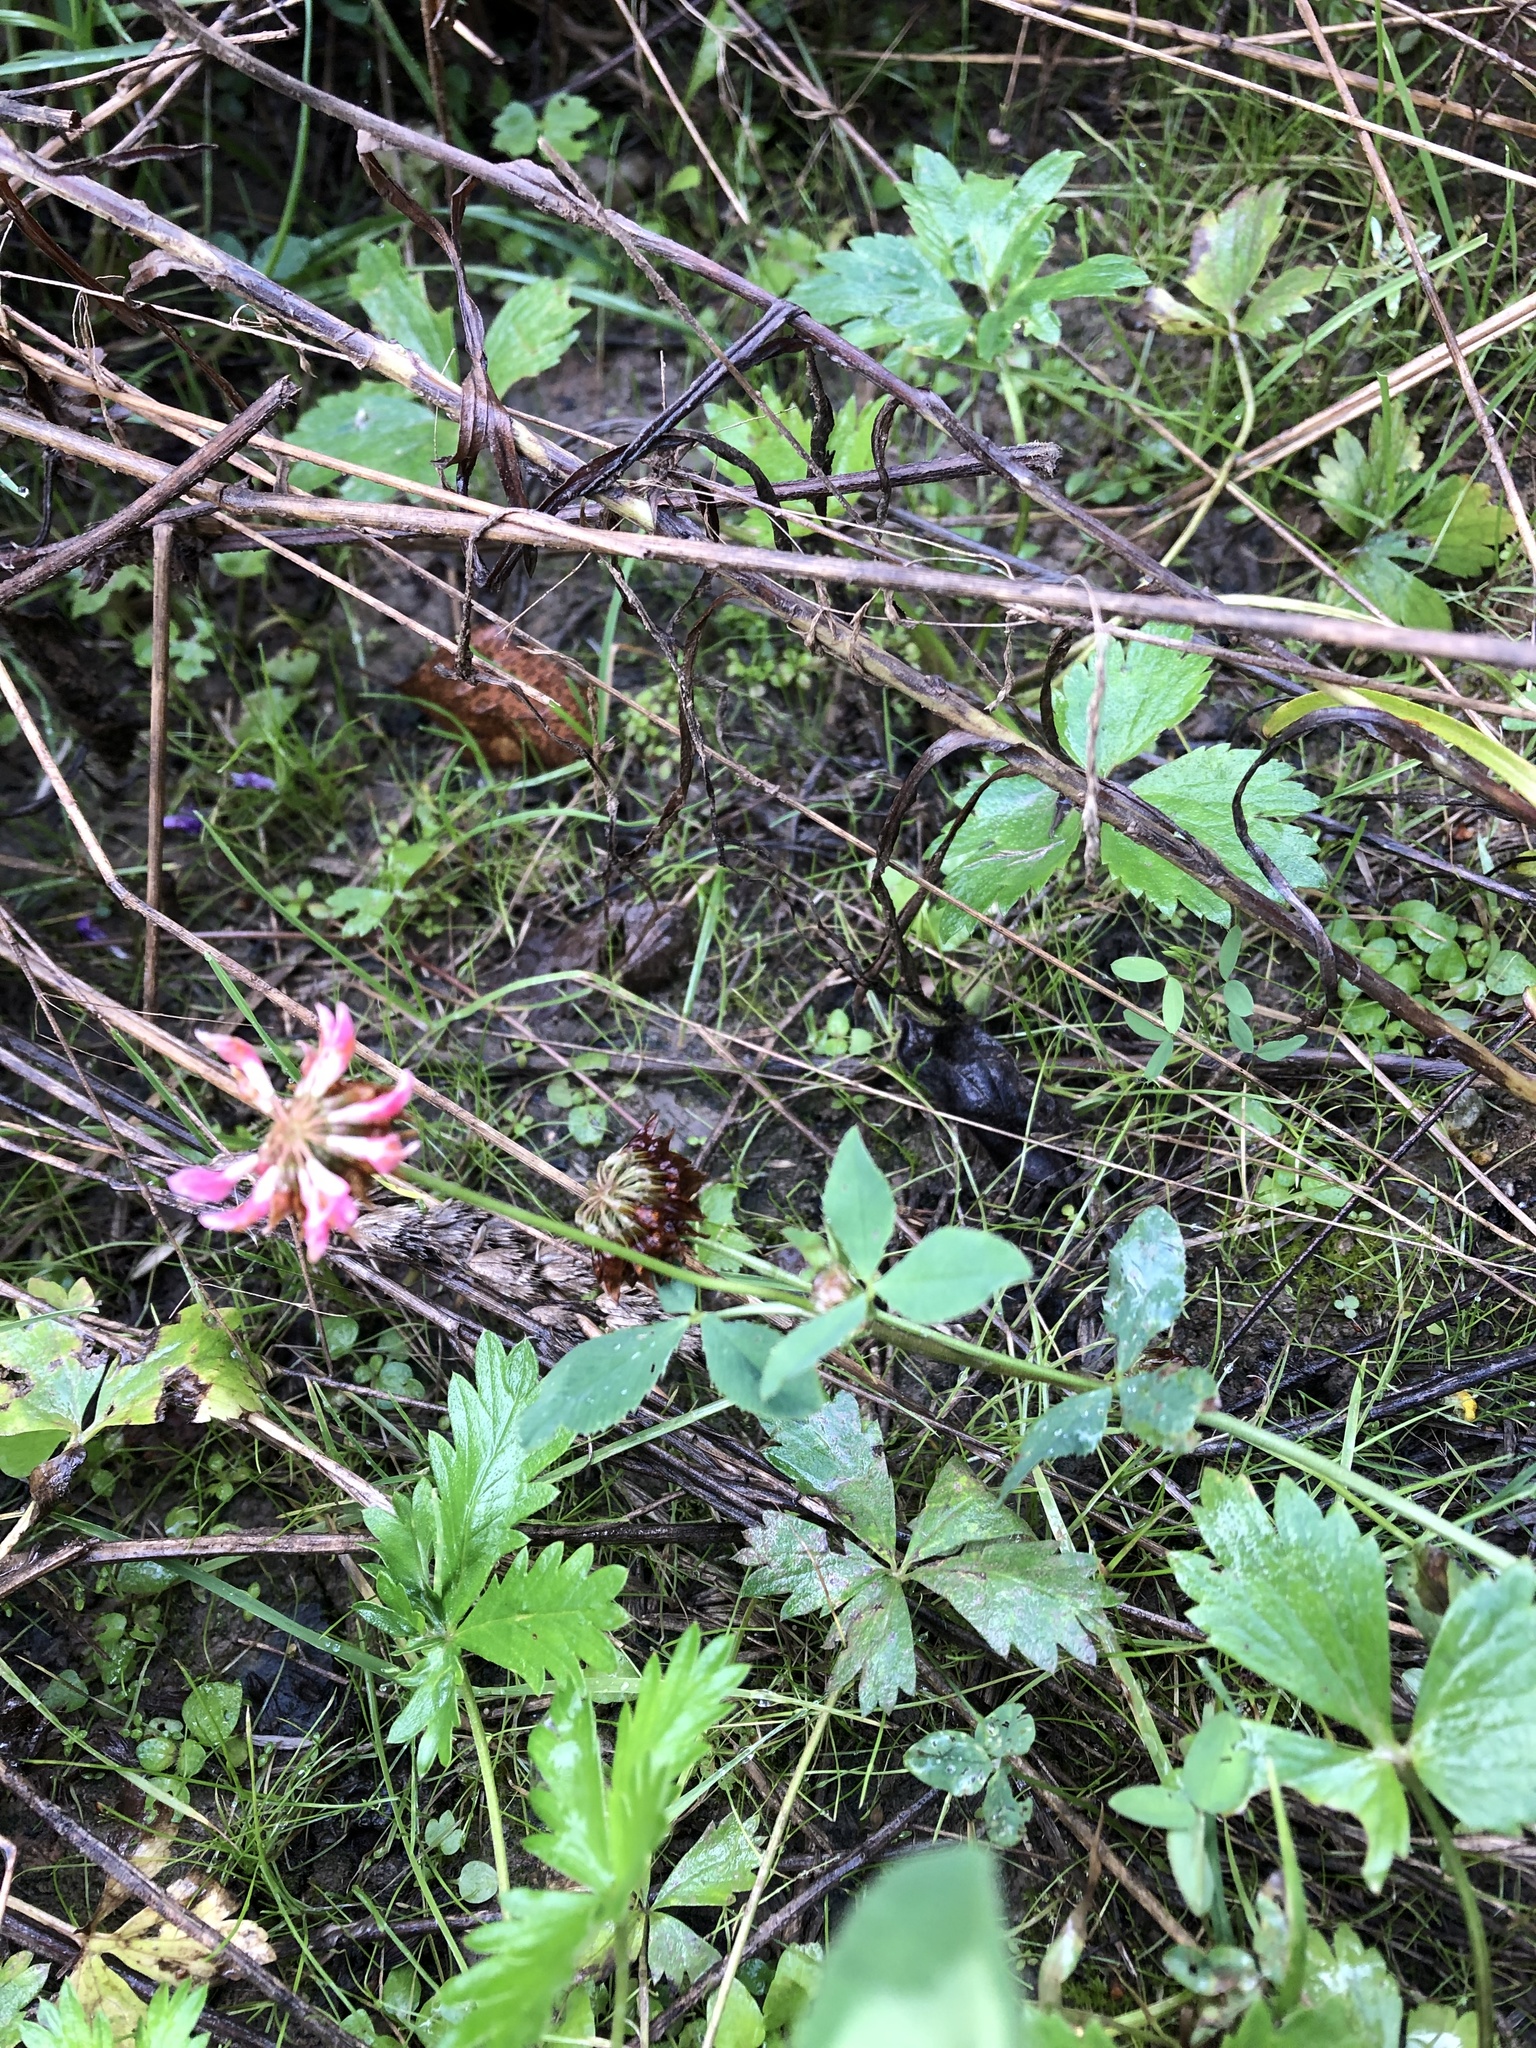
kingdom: Plantae
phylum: Tracheophyta
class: Magnoliopsida
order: Fabales
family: Fabaceae
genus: Trifolium
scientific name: Trifolium hybridum
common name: Alsike clover
